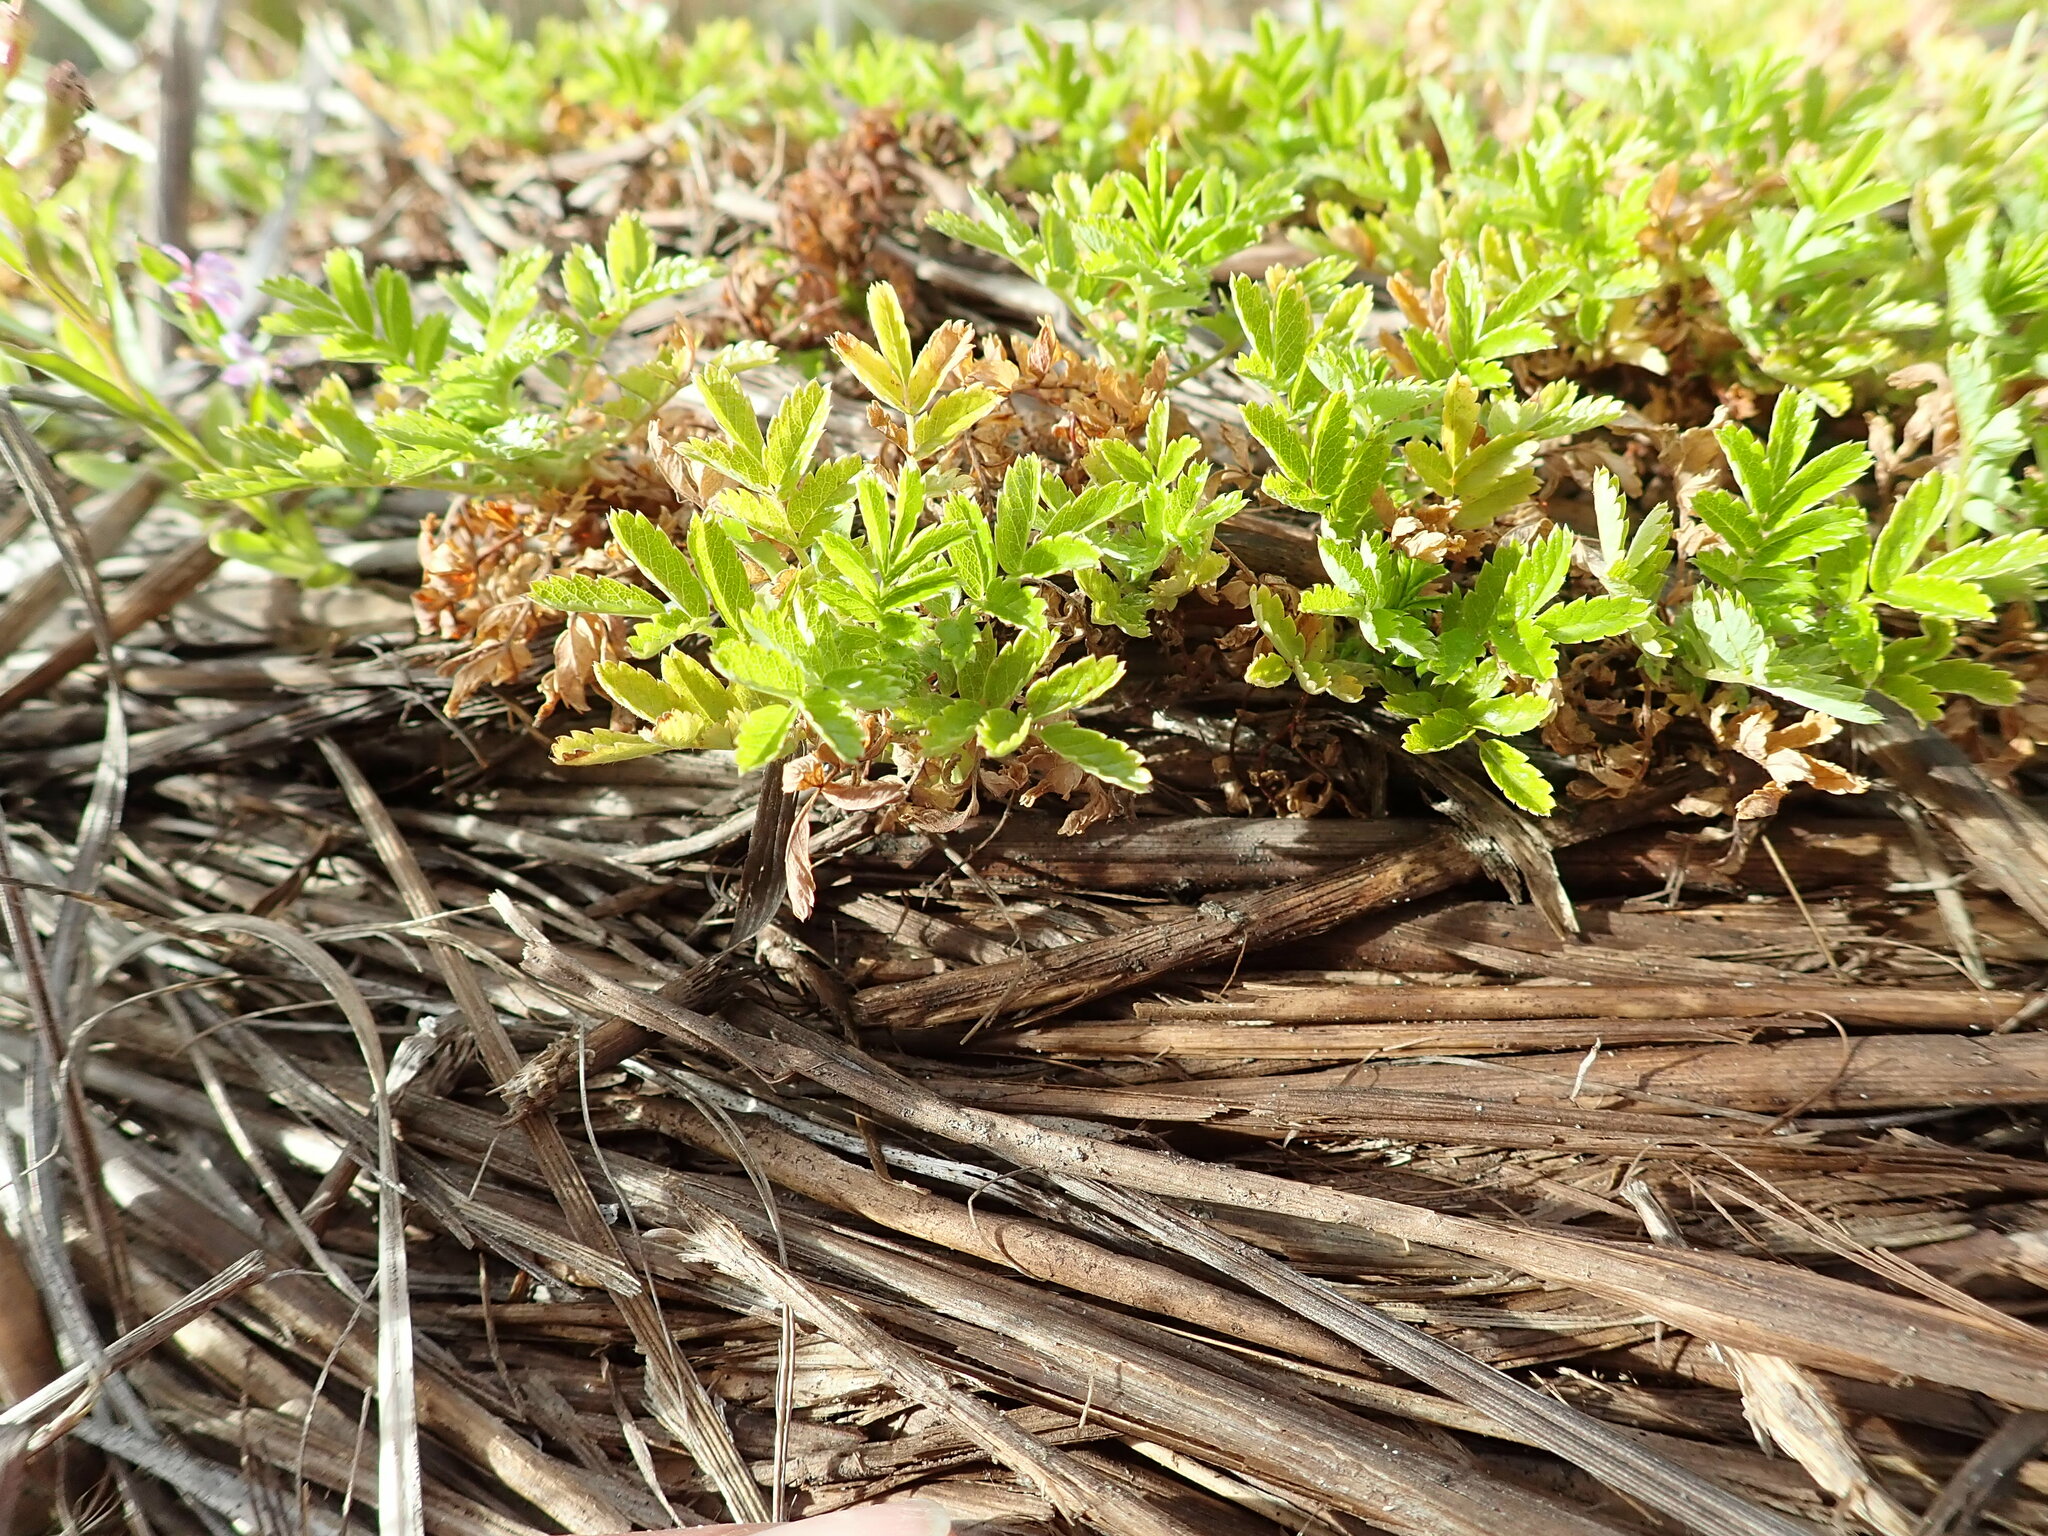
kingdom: Plantae
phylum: Tracheophyta
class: Magnoliopsida
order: Rosales
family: Rosaceae
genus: Acaena
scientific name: Acaena novae-zelandiae
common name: Pirri-pirri-bur
